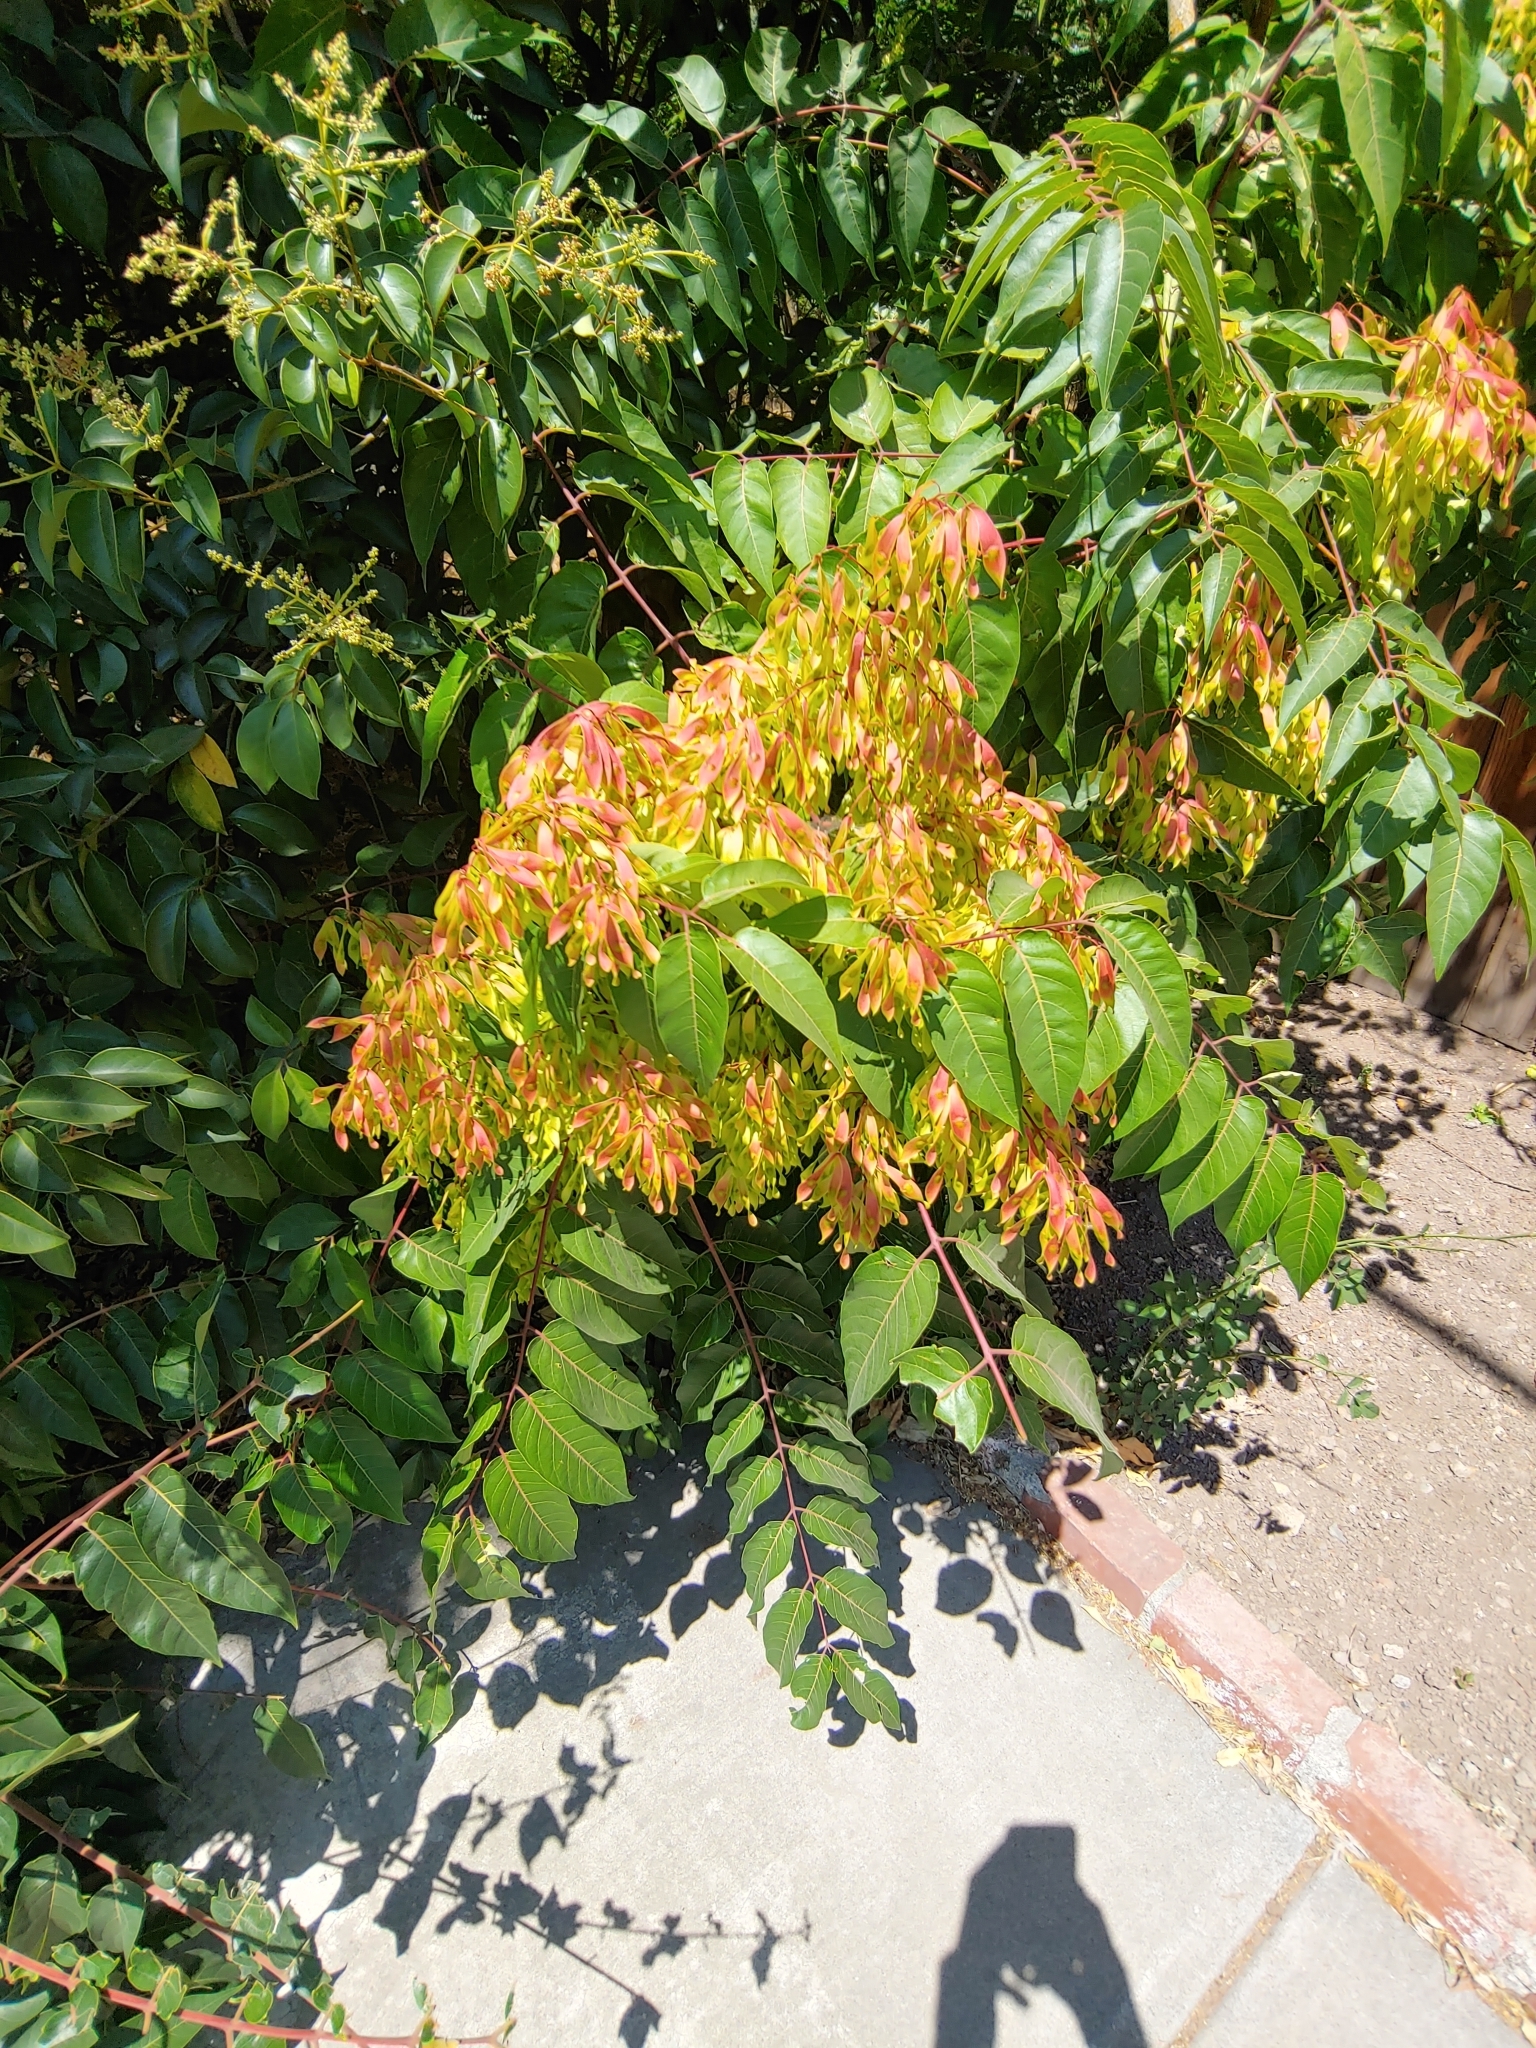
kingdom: Plantae
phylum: Tracheophyta
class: Magnoliopsida
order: Sapindales
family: Simaroubaceae
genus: Ailanthus
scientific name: Ailanthus altissima
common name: Tree-of-heaven
